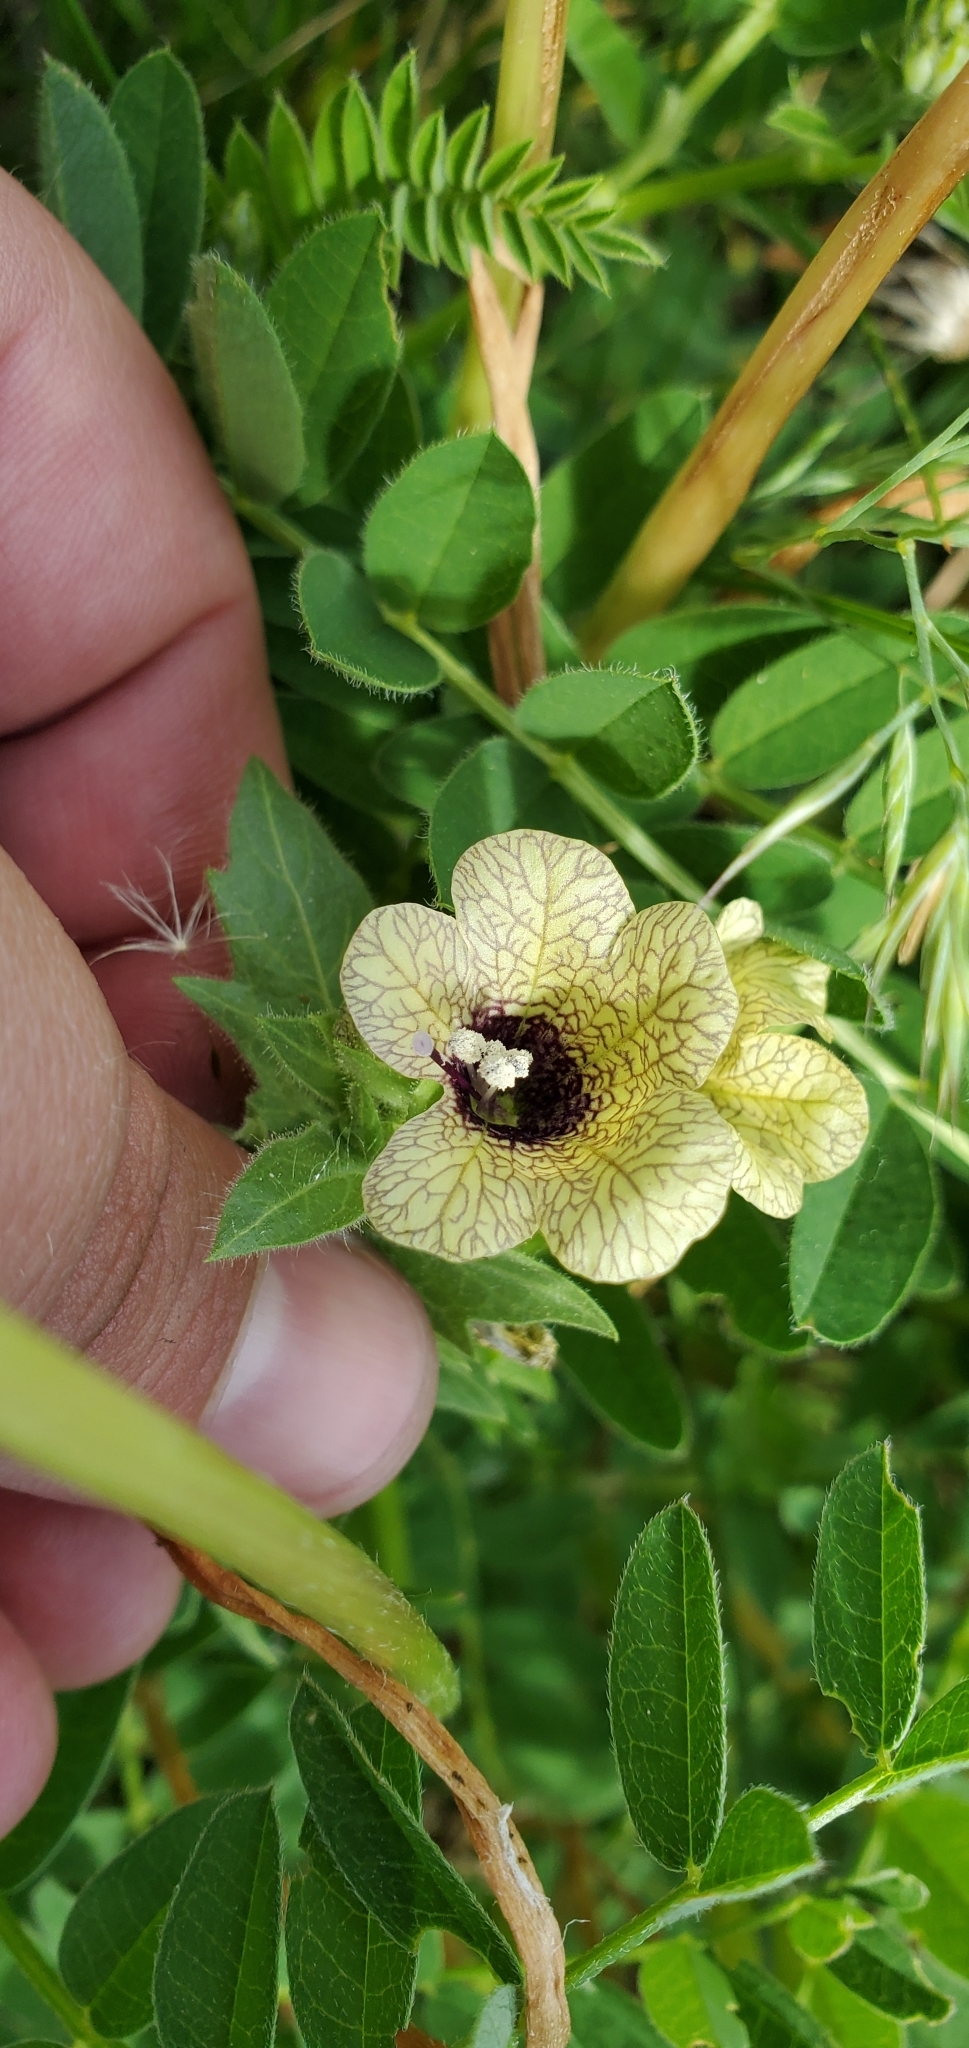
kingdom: Plantae
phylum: Tracheophyta
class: Magnoliopsida
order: Solanales
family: Solanaceae
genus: Hyoscyamus
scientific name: Hyoscyamus niger
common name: Henbane
